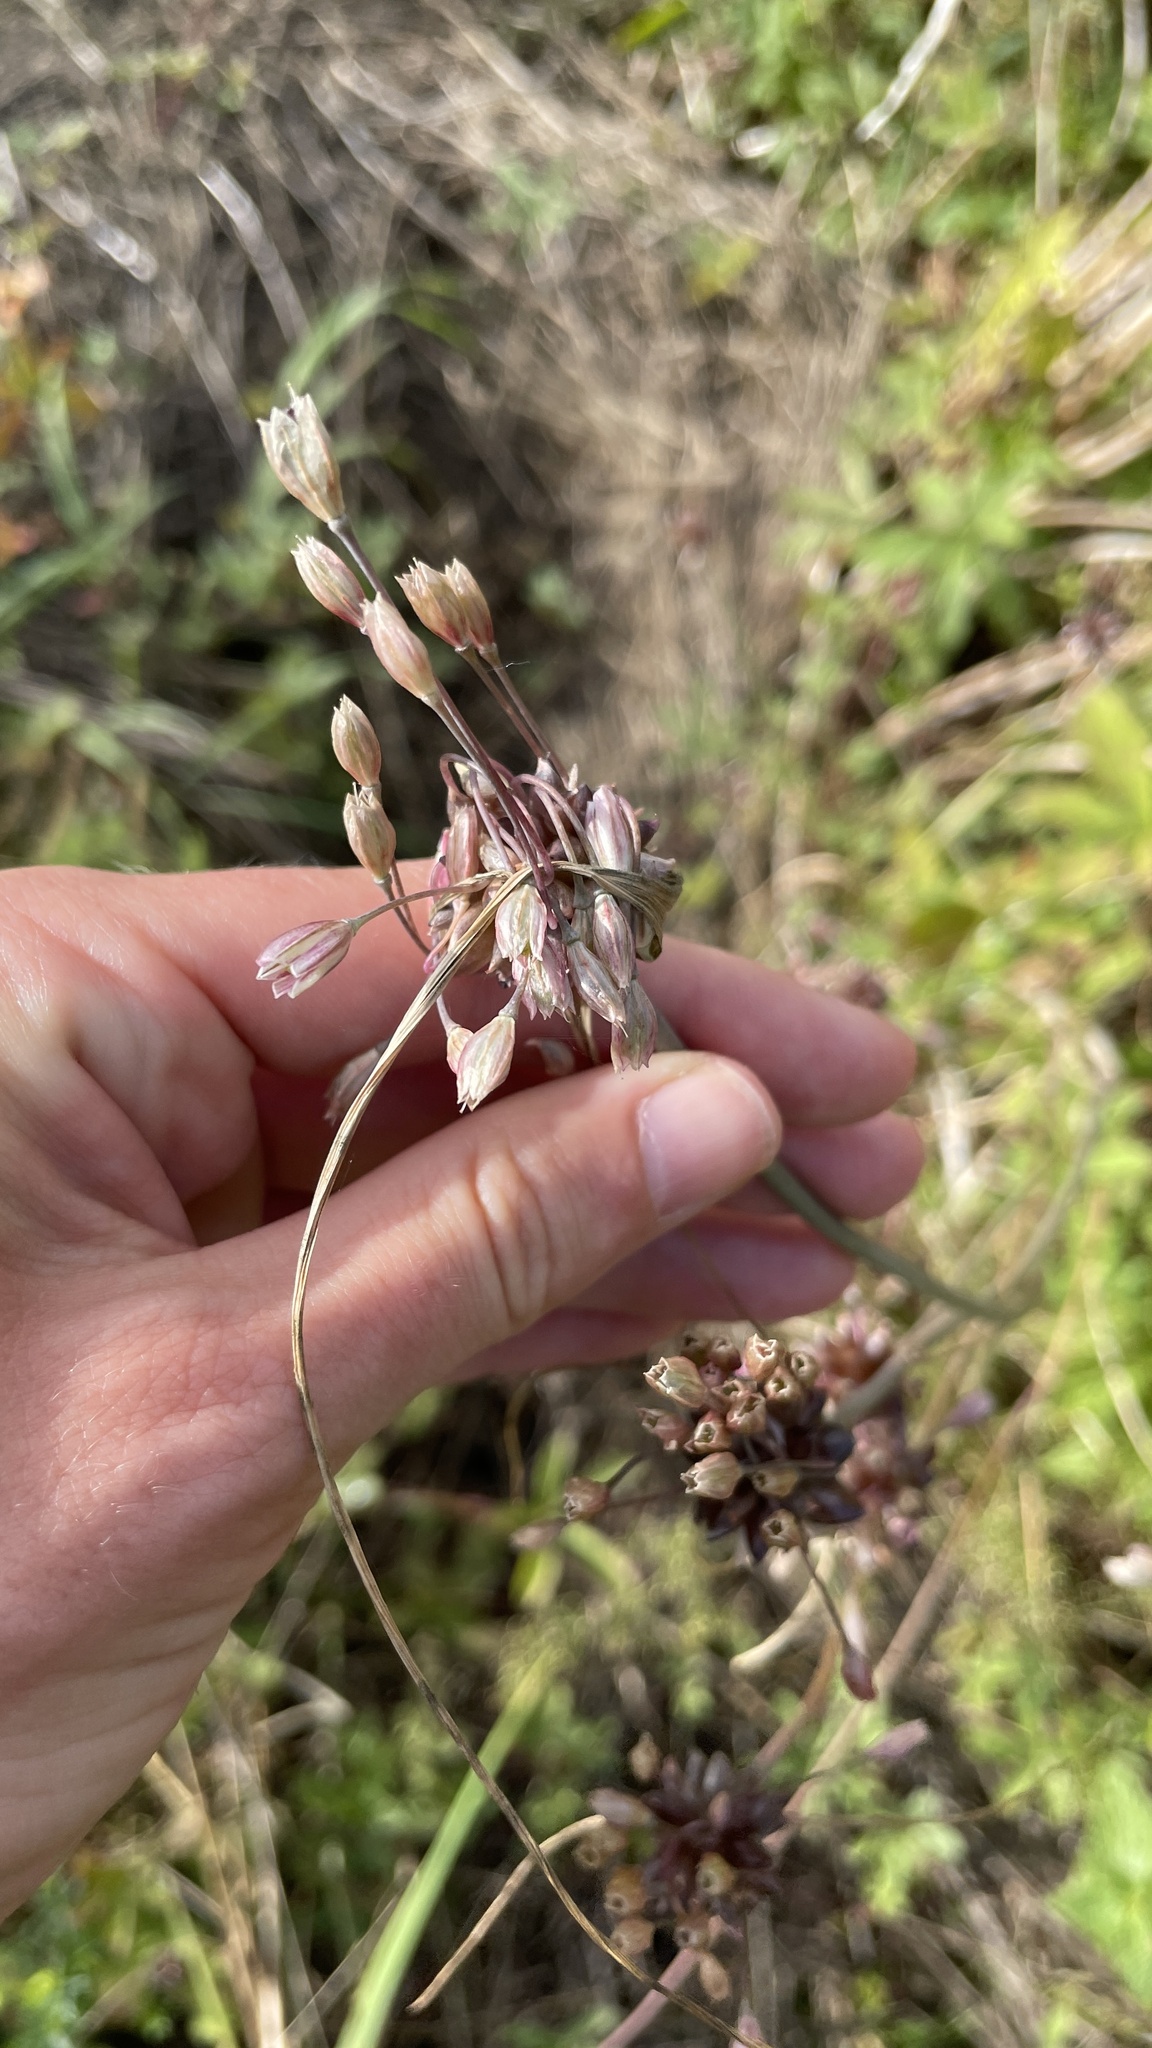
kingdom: Plantae
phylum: Tracheophyta
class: Liliopsida
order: Asparagales
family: Amaryllidaceae
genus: Allium
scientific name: Allium oleraceum
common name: Field garlic
